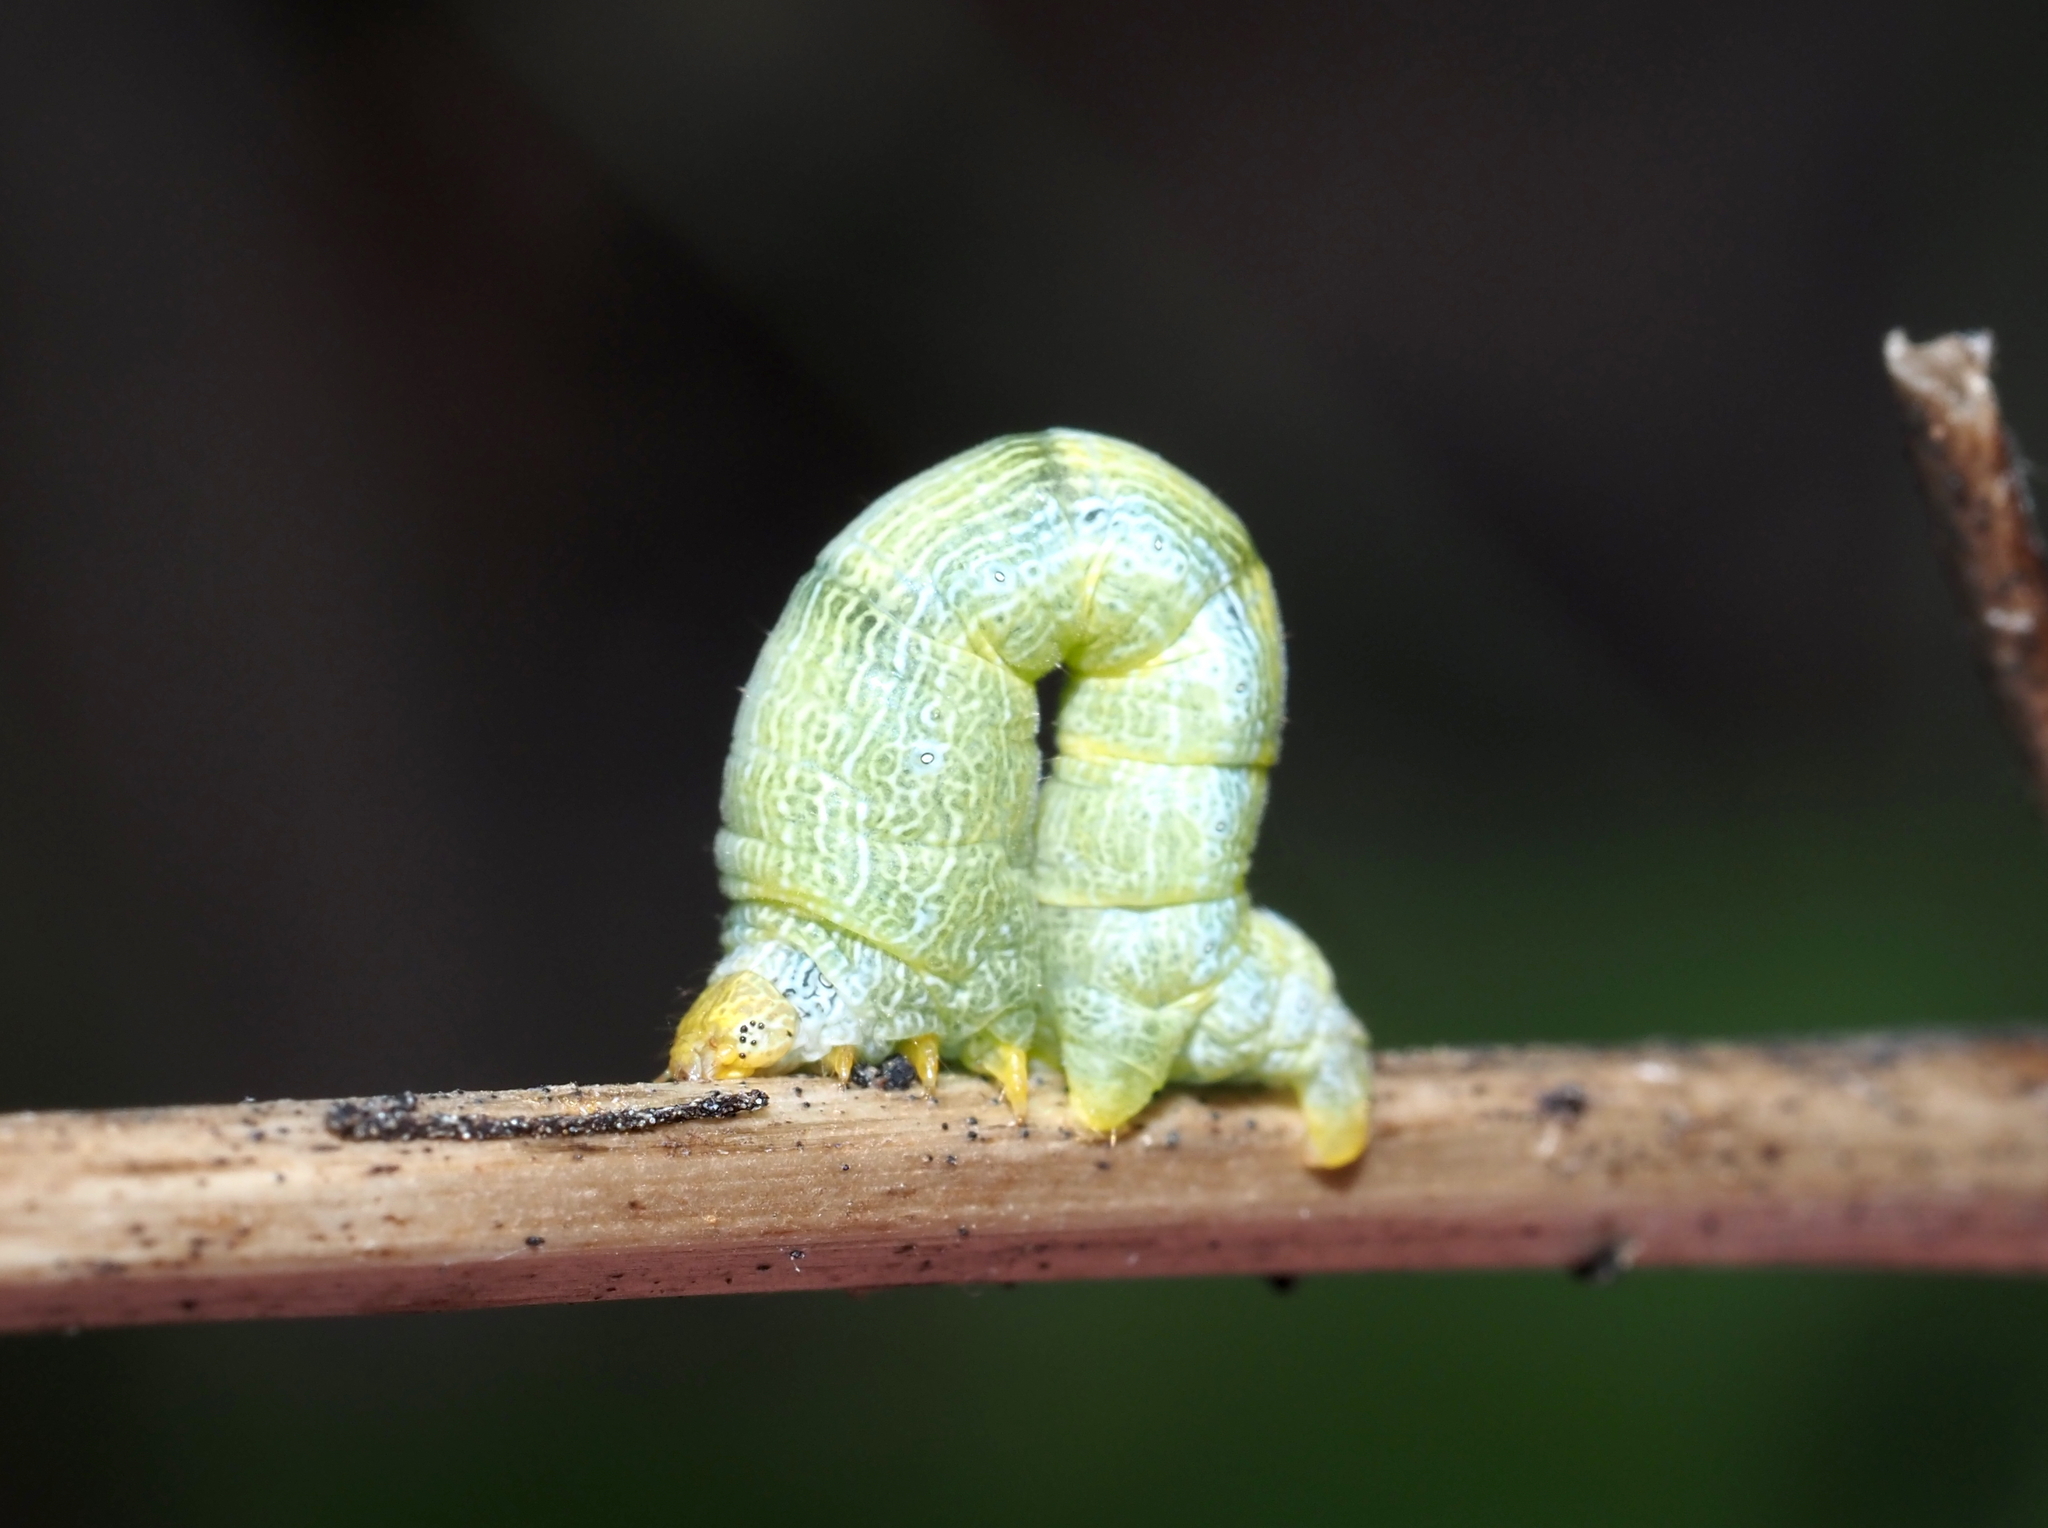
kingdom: Animalia
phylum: Arthropoda
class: Insecta
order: Lepidoptera
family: Geometridae
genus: Epimecis
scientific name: Epimecis hortaria
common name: Tulip-tree beauty
